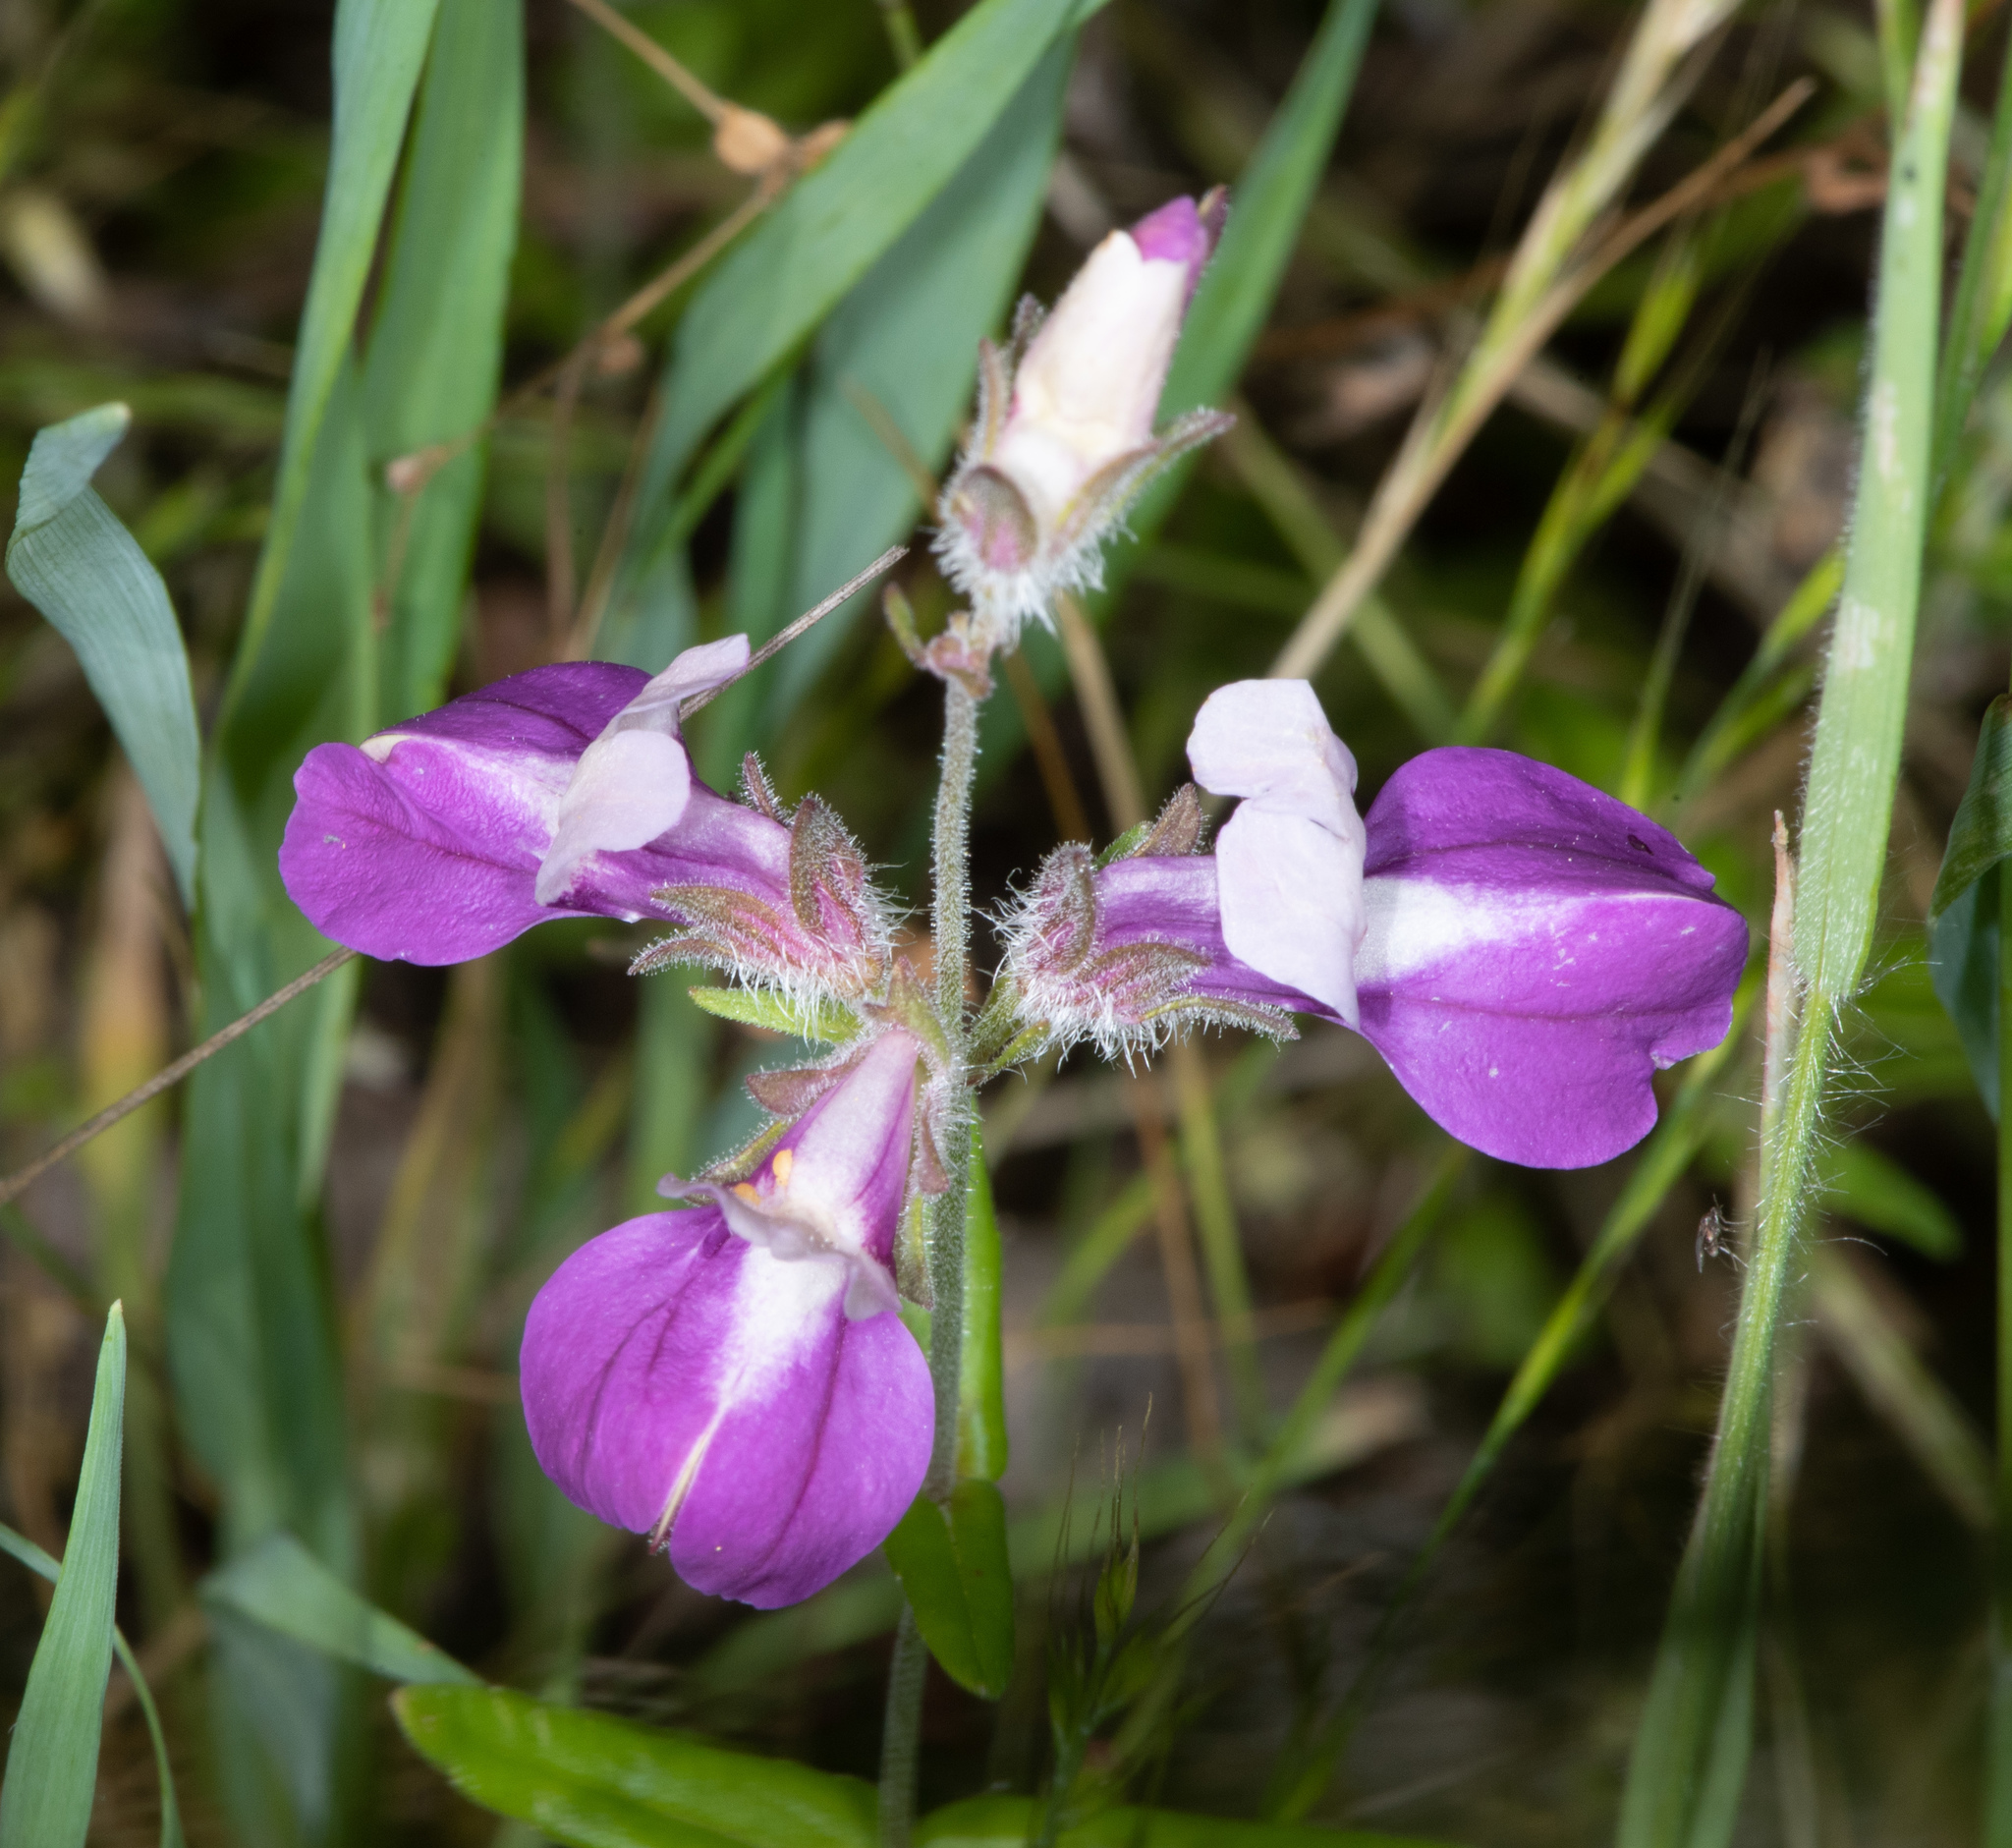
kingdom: Plantae
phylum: Tracheophyta
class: Magnoliopsida
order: Lamiales
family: Plantaginaceae
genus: Collinsia
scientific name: Collinsia heterophylla
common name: Chinese-houses
